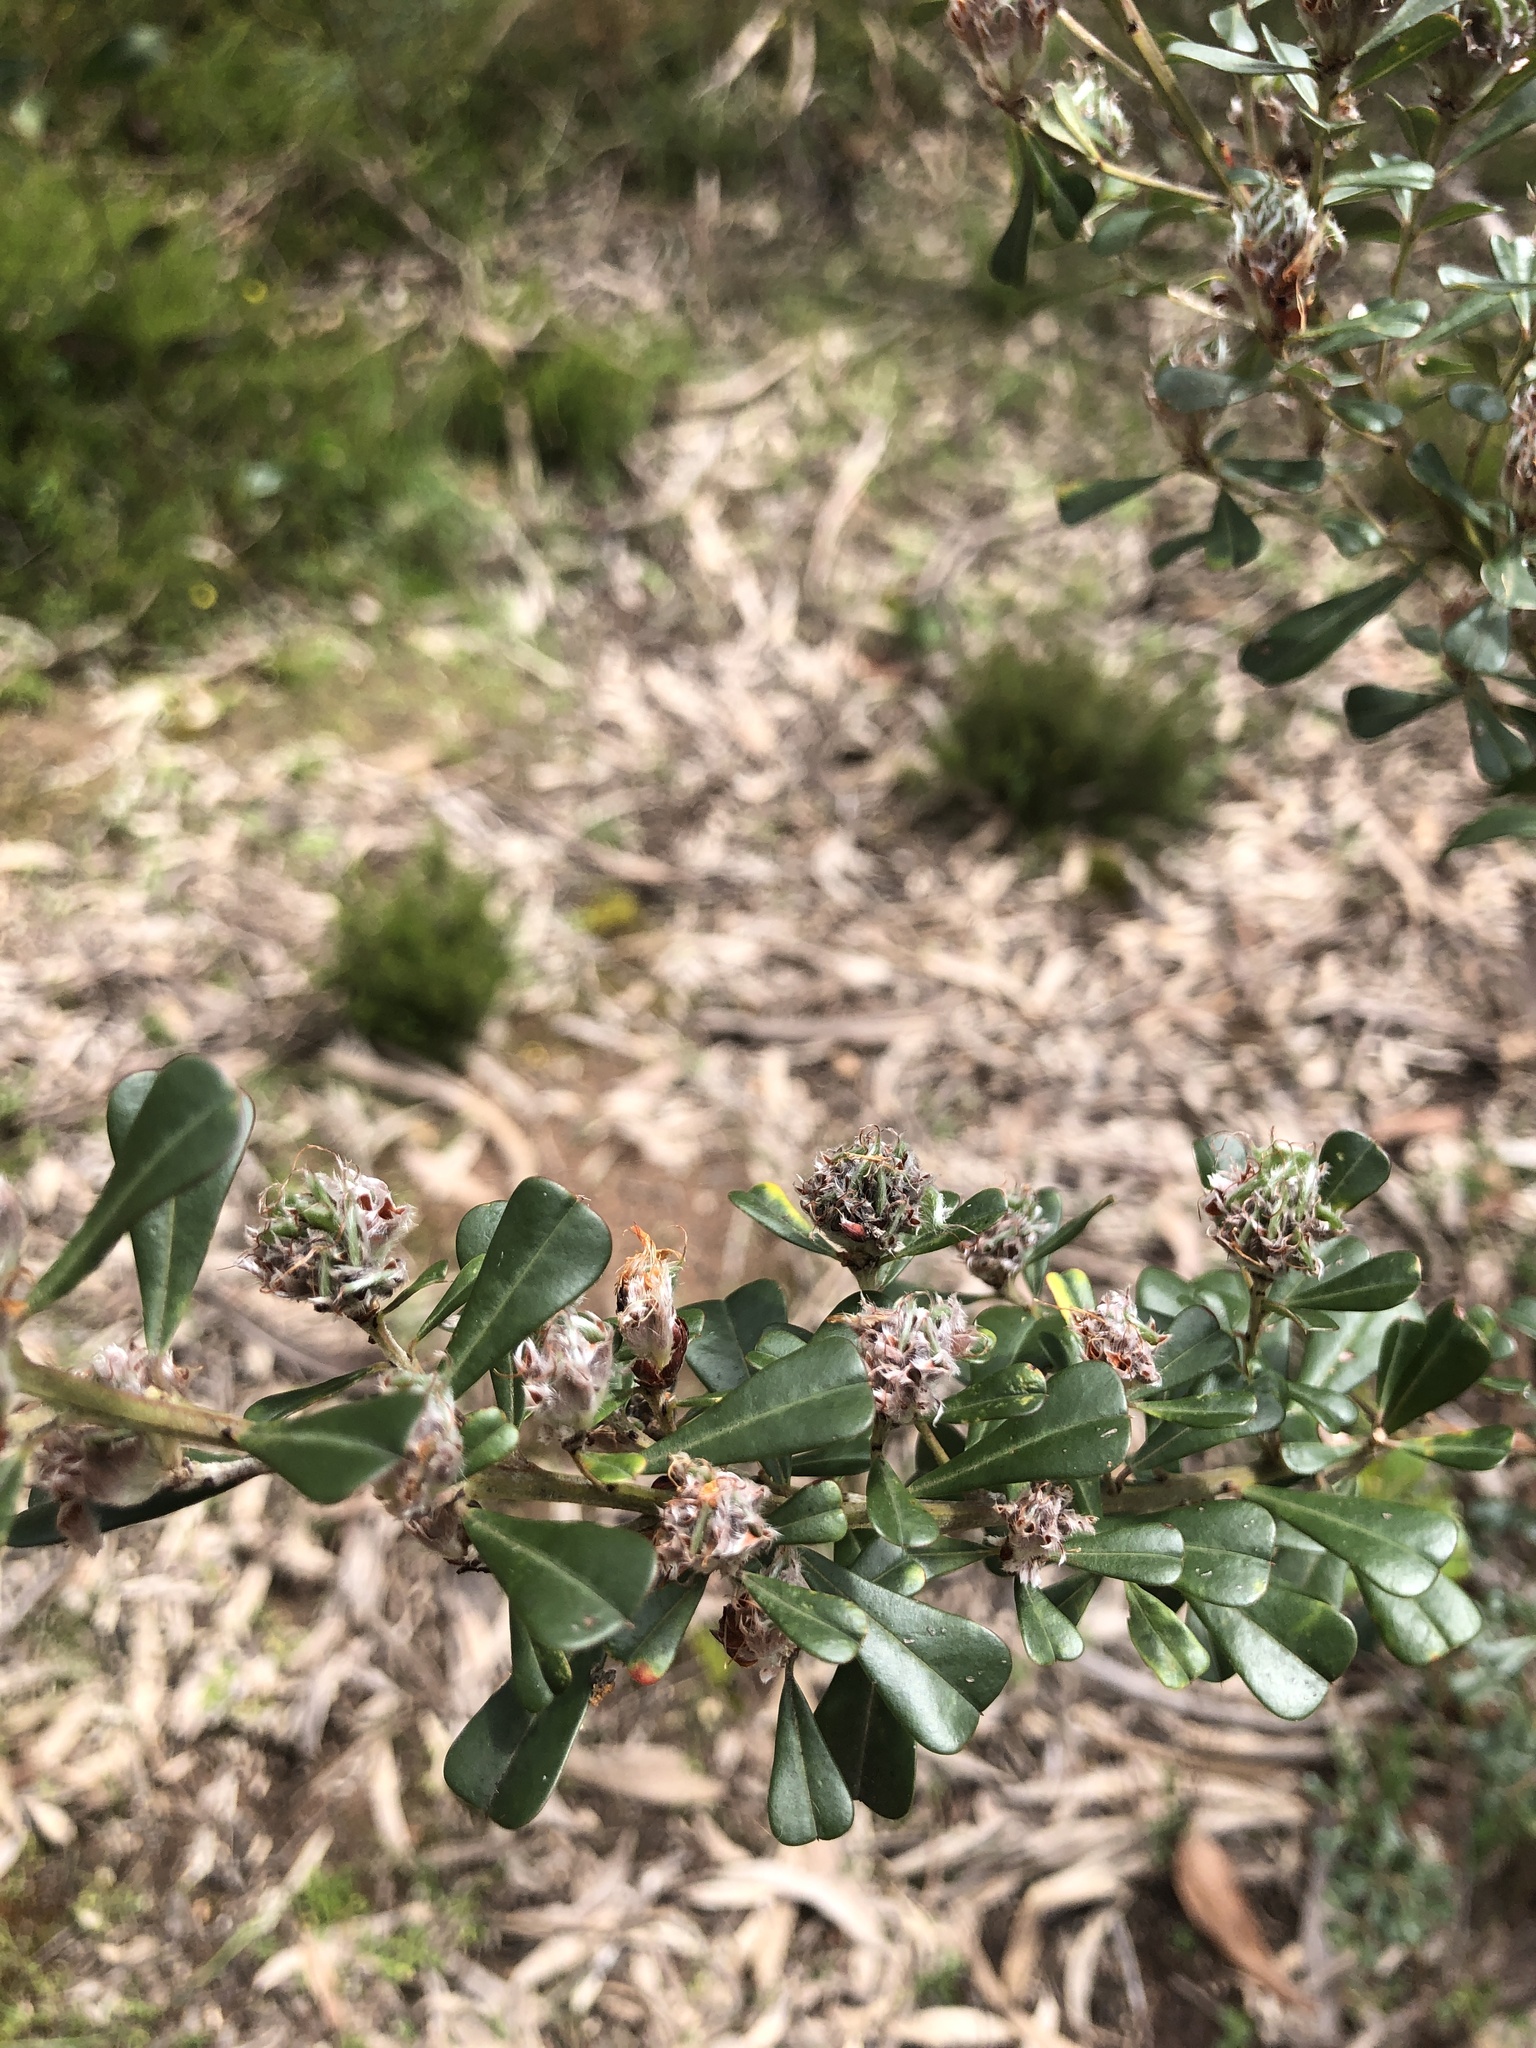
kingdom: Plantae
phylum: Tracheophyta
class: Magnoliopsida
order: Fabales
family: Fabaceae
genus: Pultenaea
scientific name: Pultenaea daphnoides
